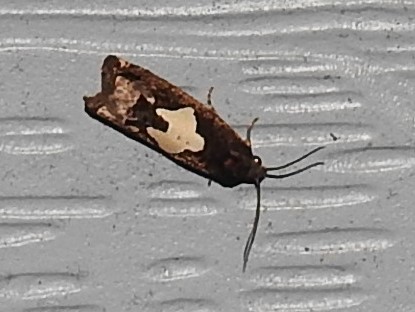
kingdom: Animalia
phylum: Arthropoda
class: Insecta
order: Lepidoptera
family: Tortricidae
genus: Epiblema
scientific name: Epiblema otiosana
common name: Bidens borer moth
